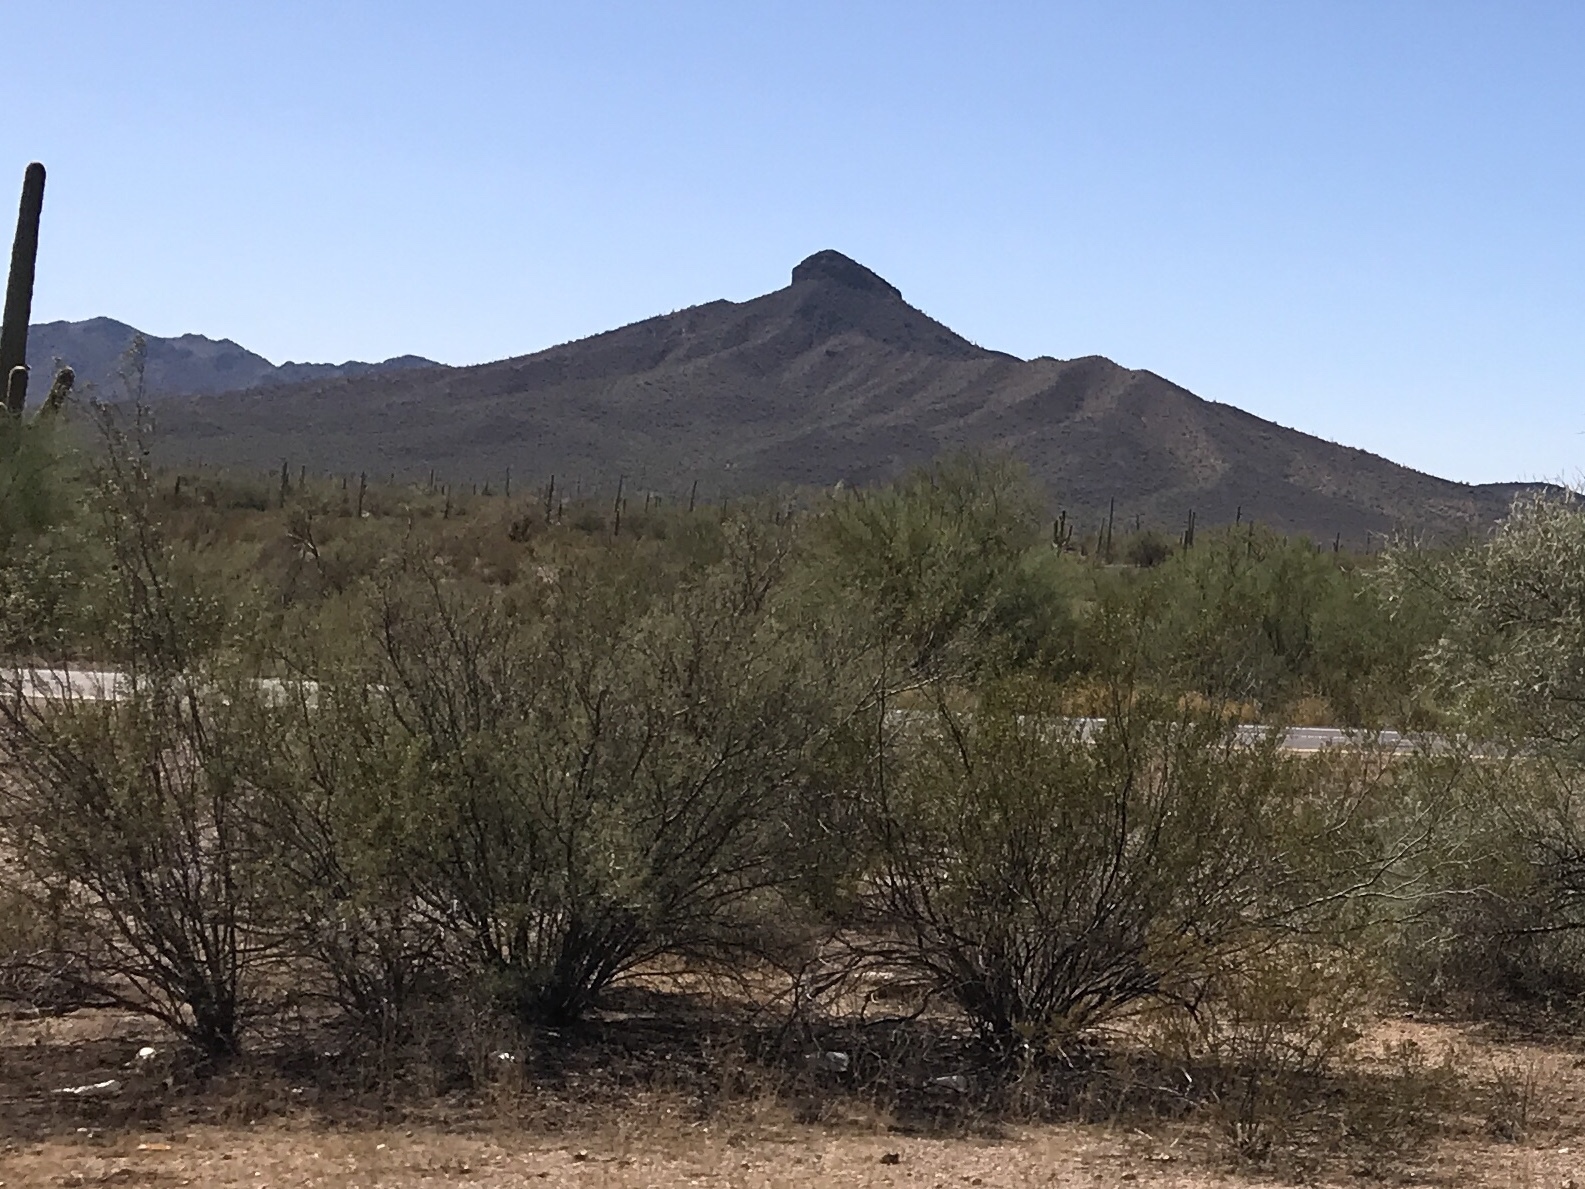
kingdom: Plantae
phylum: Tracheophyta
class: Magnoliopsida
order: Zygophyllales
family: Zygophyllaceae
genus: Larrea
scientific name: Larrea tridentata
